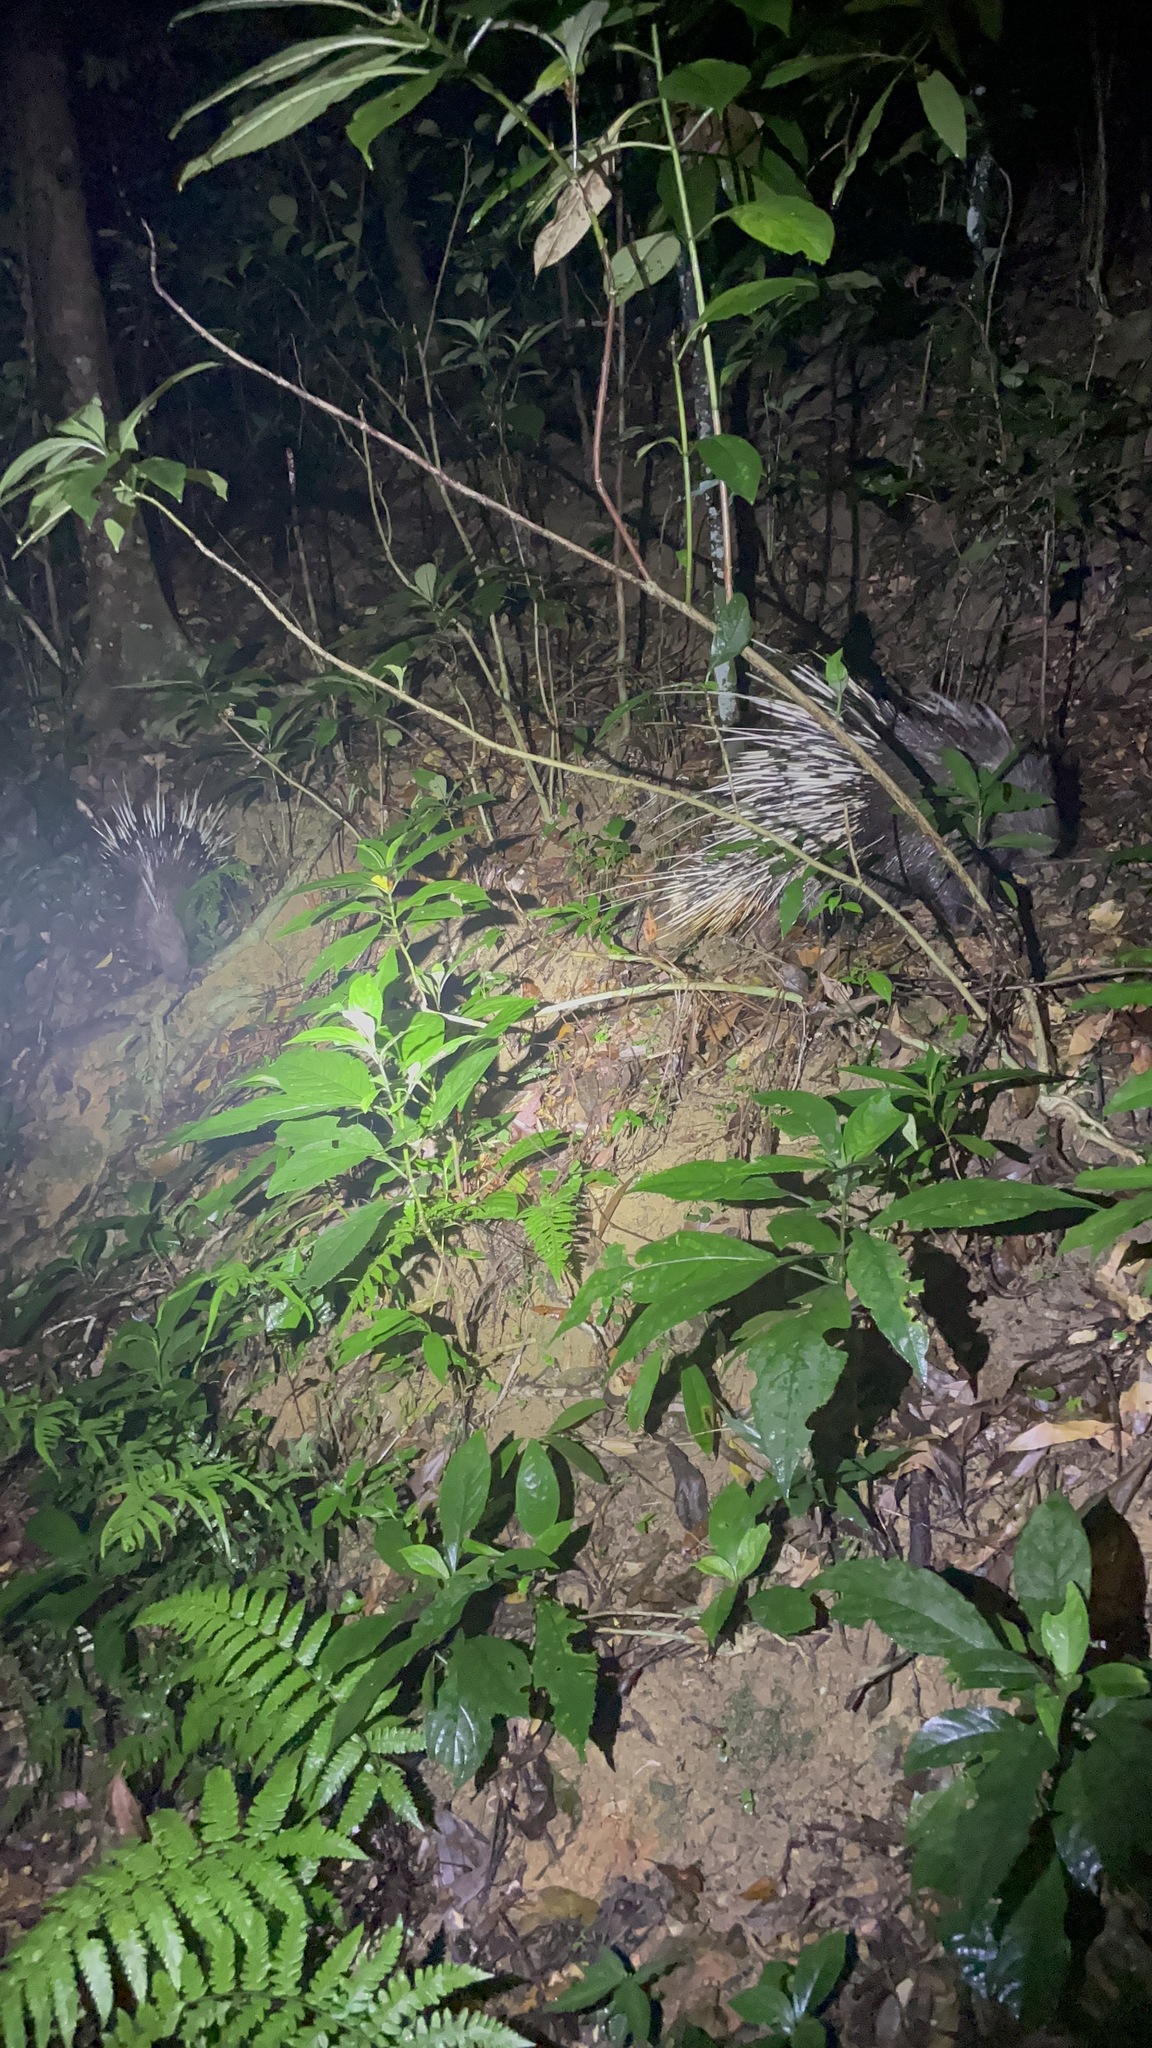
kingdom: Animalia
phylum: Chordata
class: Mammalia
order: Rodentia
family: Hystricidae
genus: Hystrix
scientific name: Hystrix brachyura
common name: Malayan porcupine
